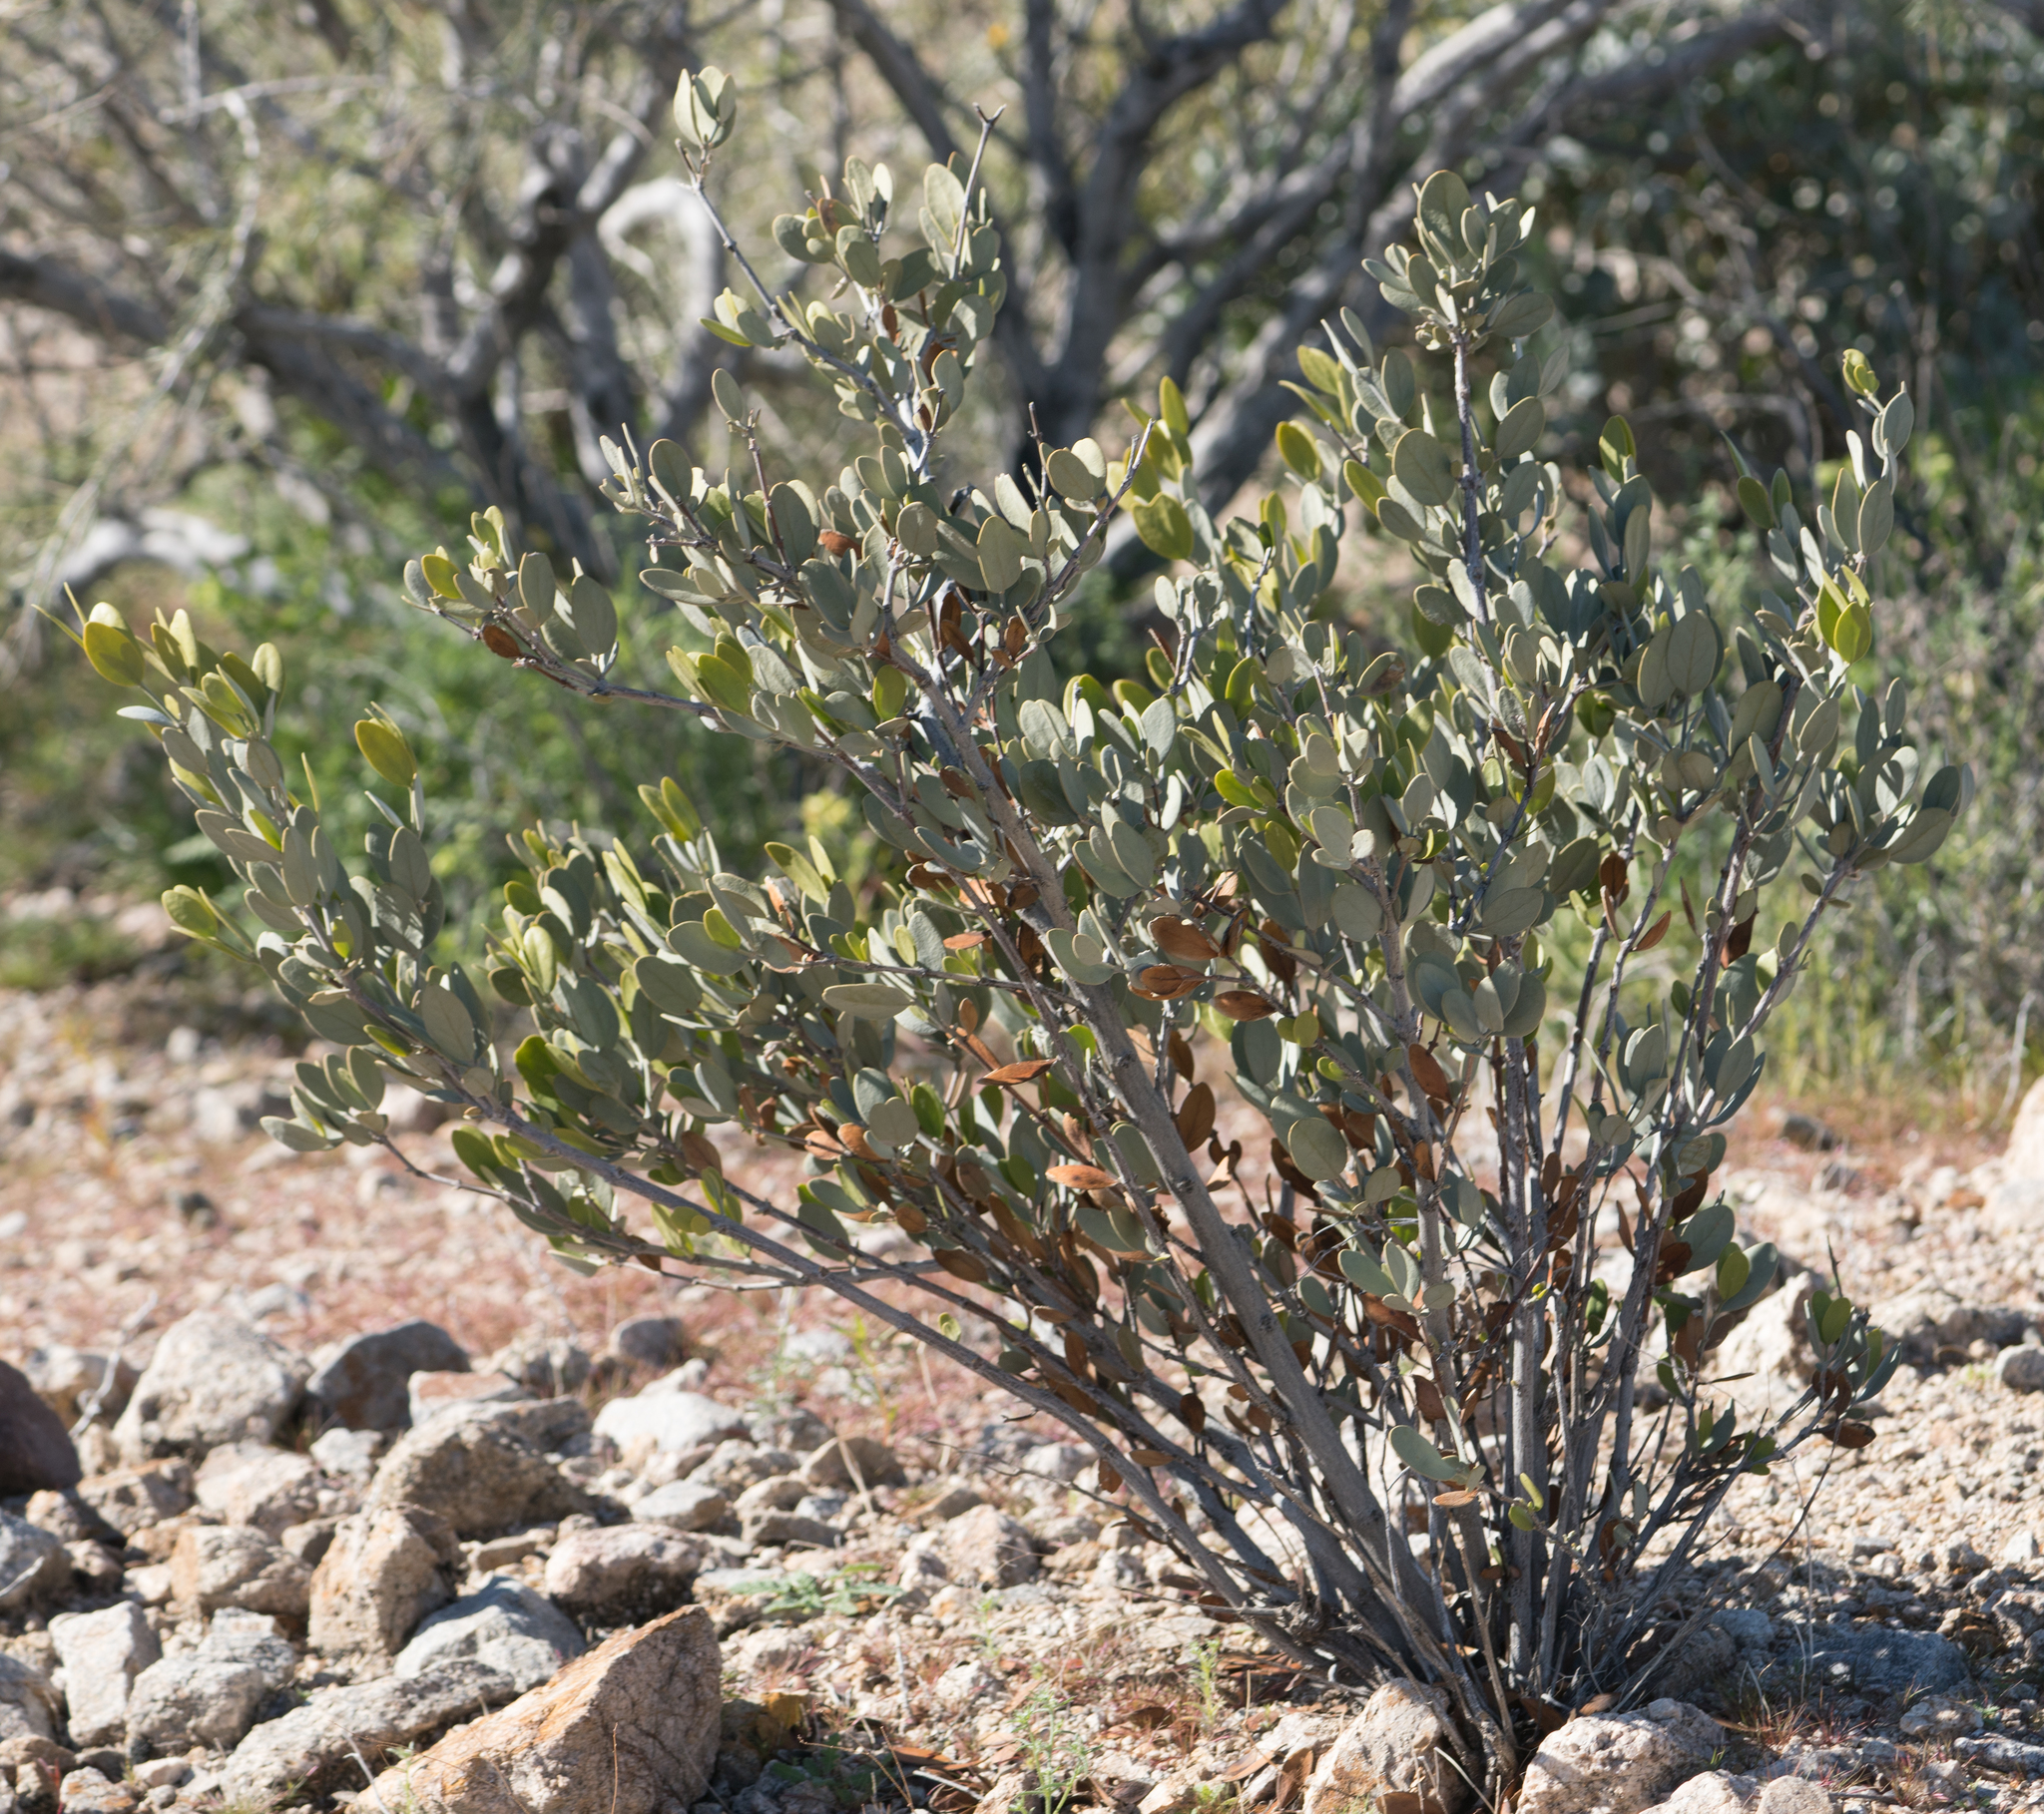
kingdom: Plantae
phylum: Tracheophyta
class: Magnoliopsida
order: Caryophyllales
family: Simmondsiaceae
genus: Simmondsia
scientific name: Simmondsia chinensis
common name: Jojoba
